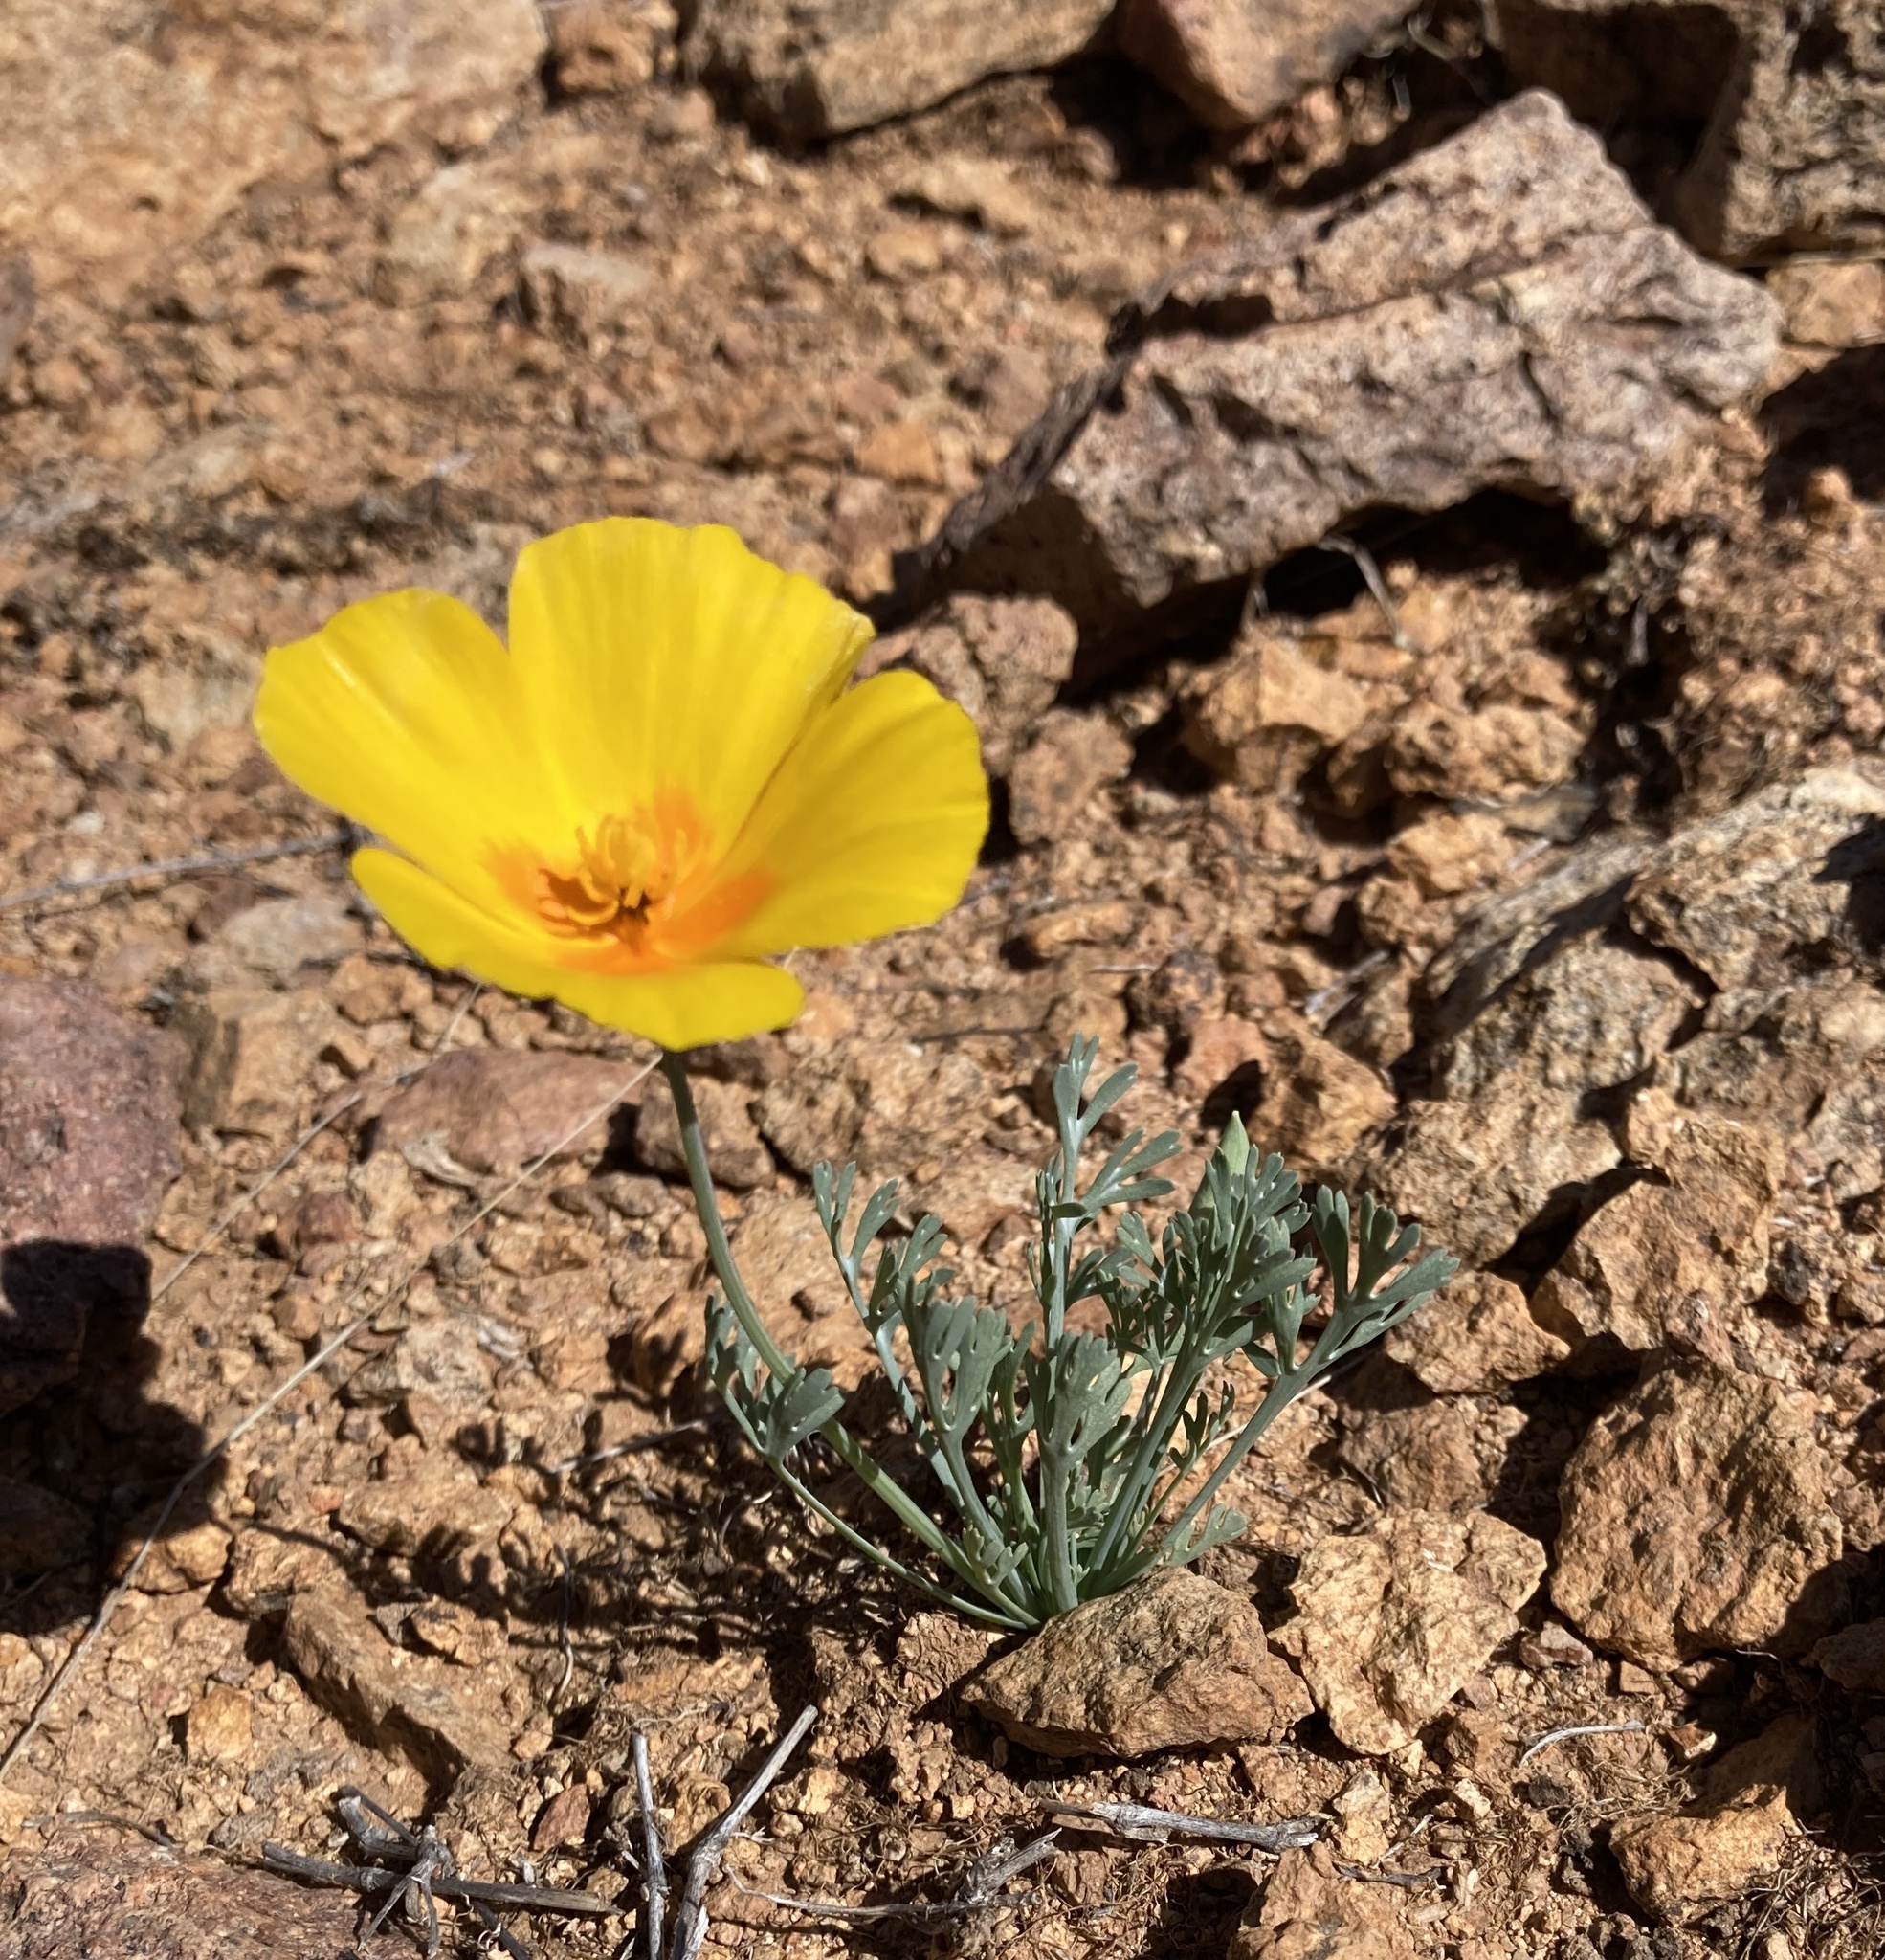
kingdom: Plantae
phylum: Tracheophyta
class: Magnoliopsida
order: Ranunculales
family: Papaveraceae
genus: Eschscholzia
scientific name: Eschscholzia californica
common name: California poppy
